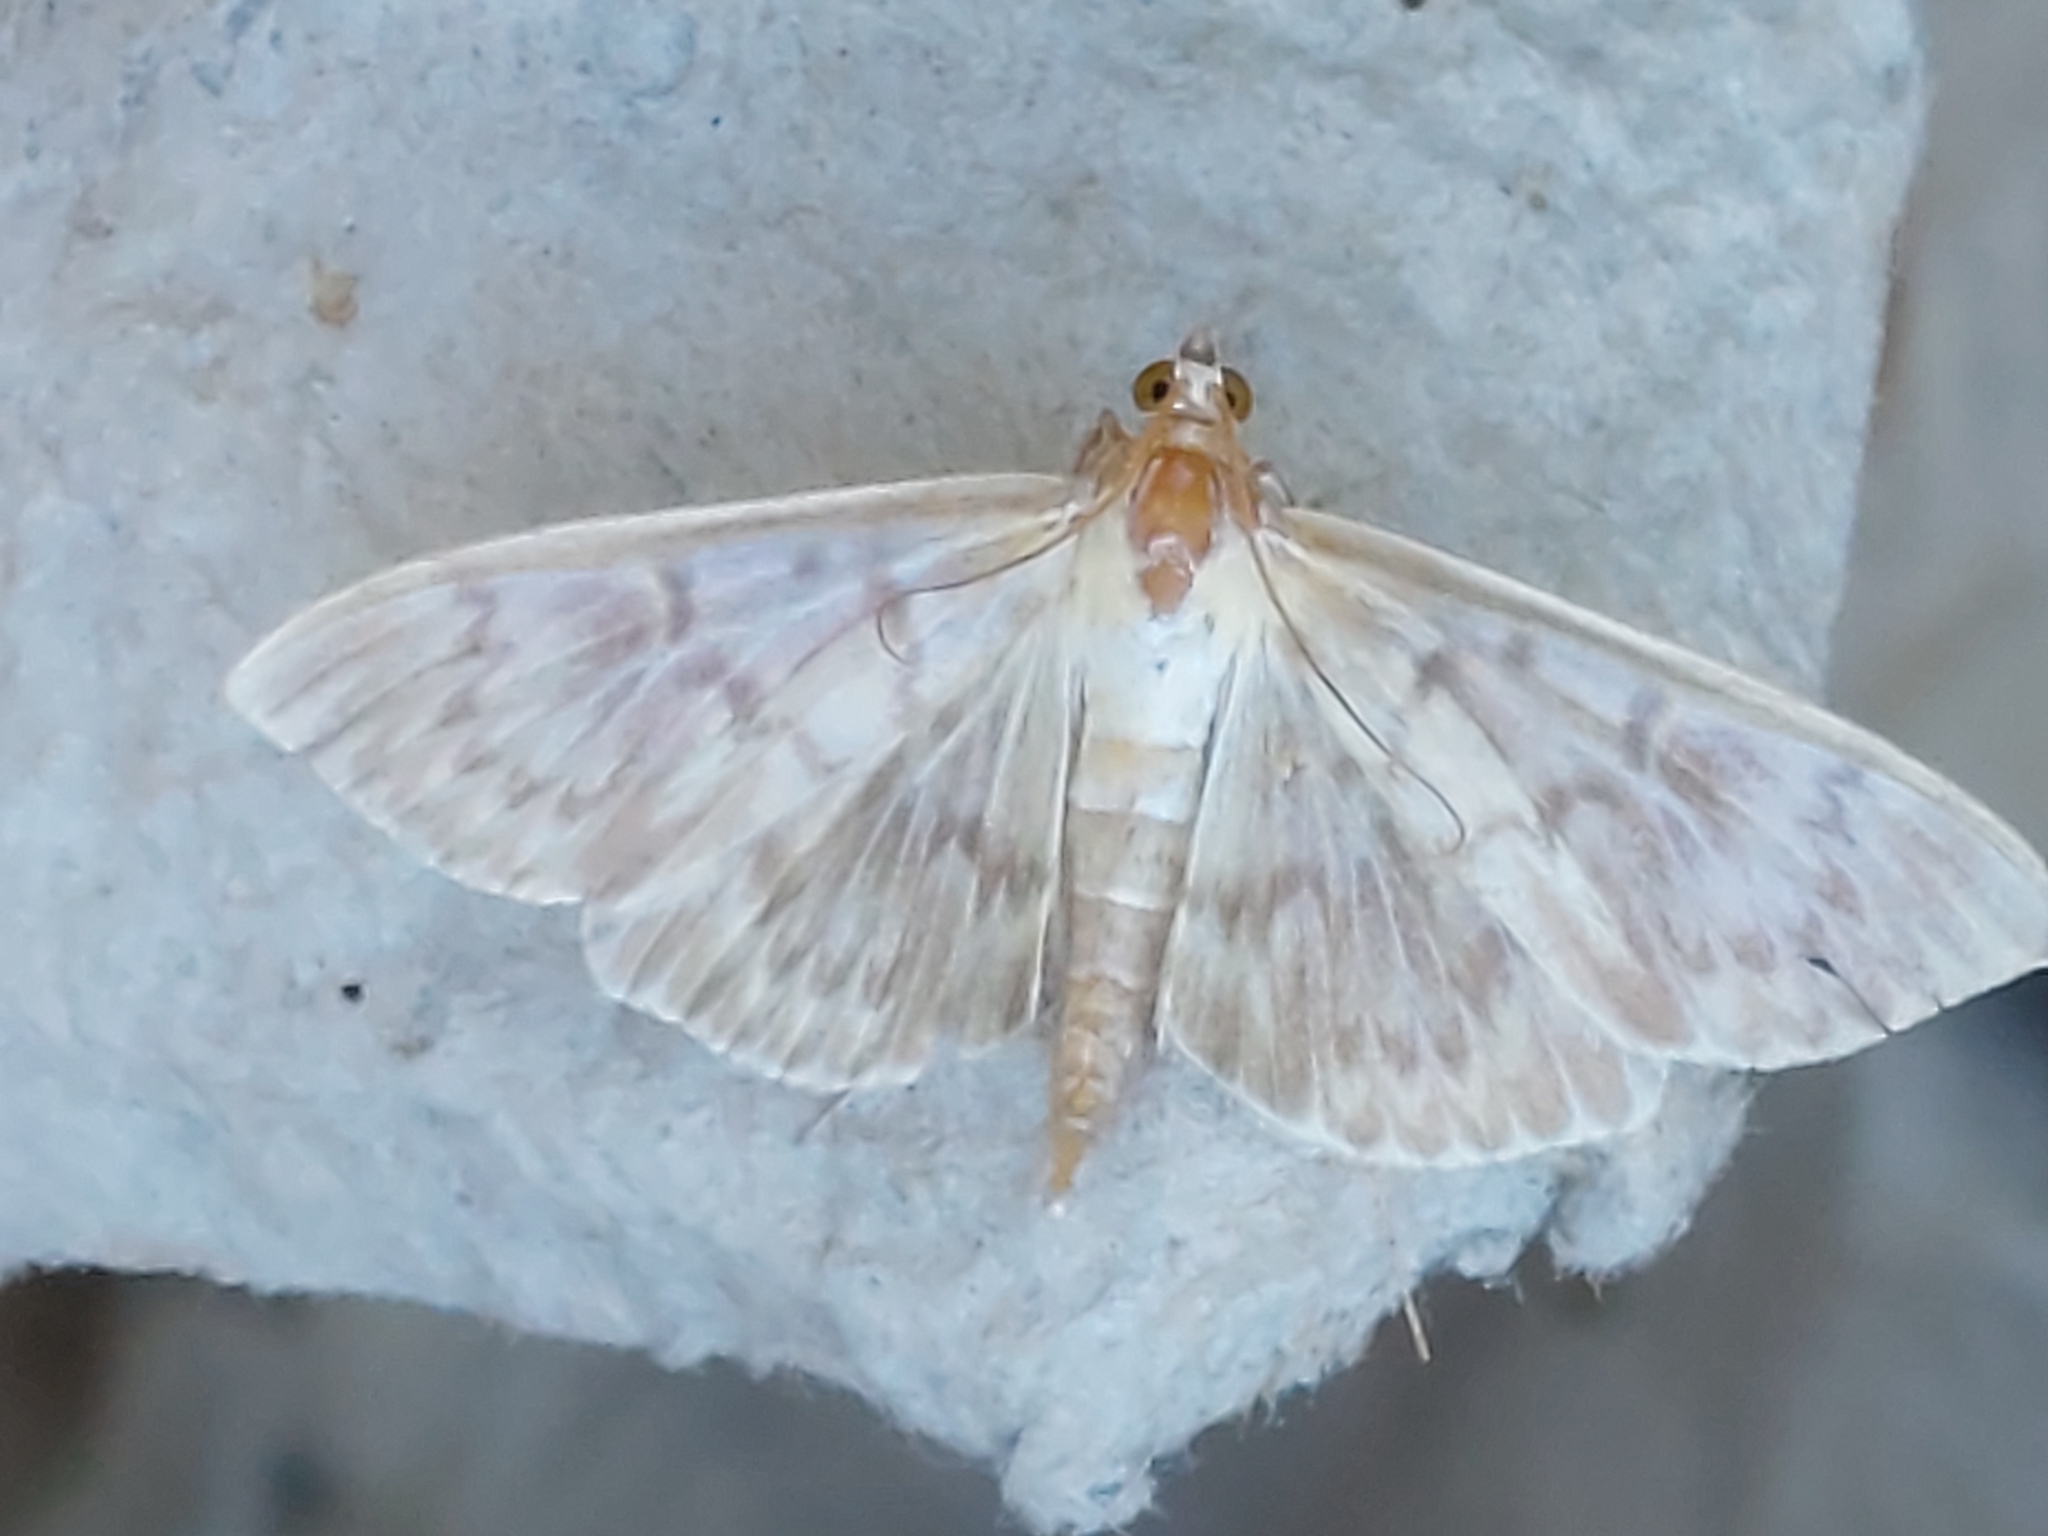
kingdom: Animalia
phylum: Arthropoda
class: Insecta
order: Lepidoptera
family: Crambidae
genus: Patania
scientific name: Patania ruralis
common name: Mother of pearl
